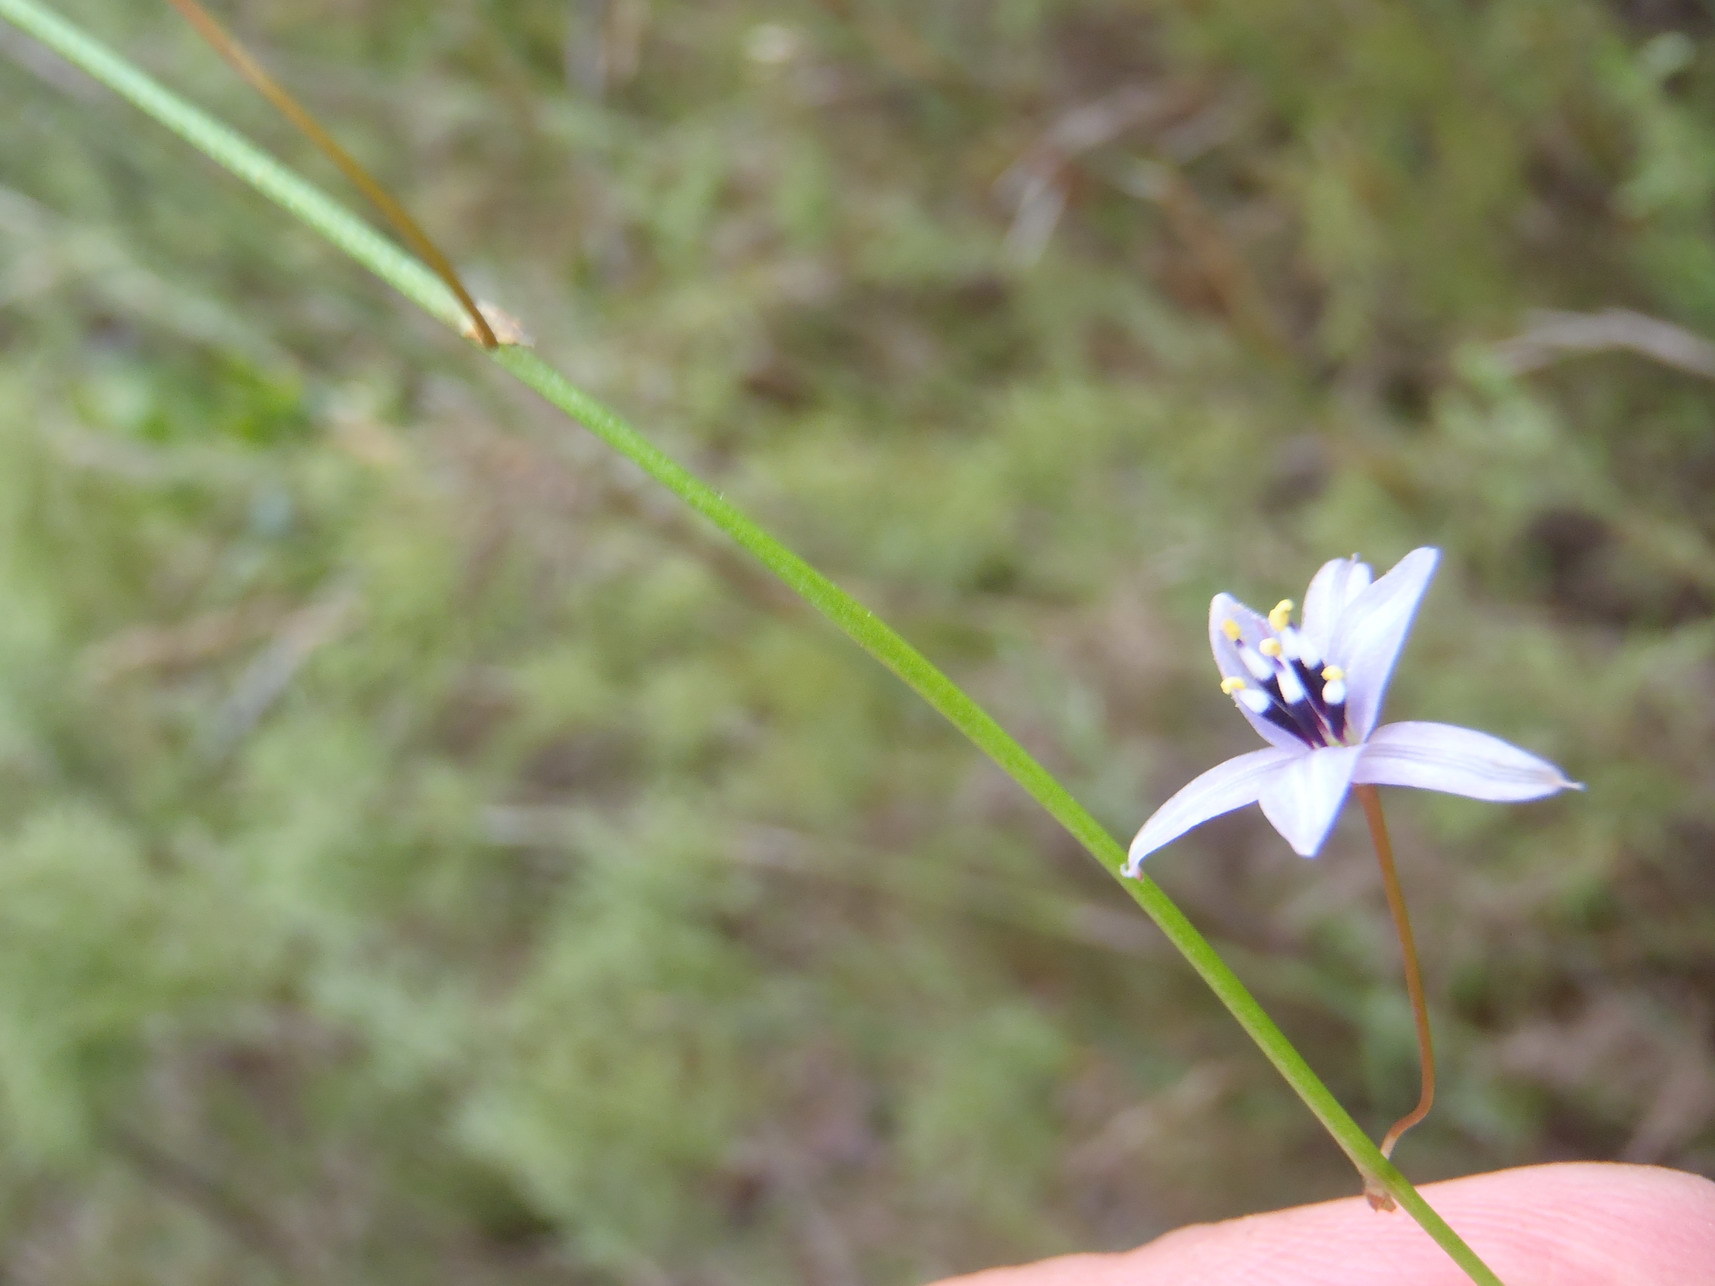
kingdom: Plantae
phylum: Tracheophyta
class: Liliopsida
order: Asparagales
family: Asphodelaceae
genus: Caesia
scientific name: Caesia contorta
